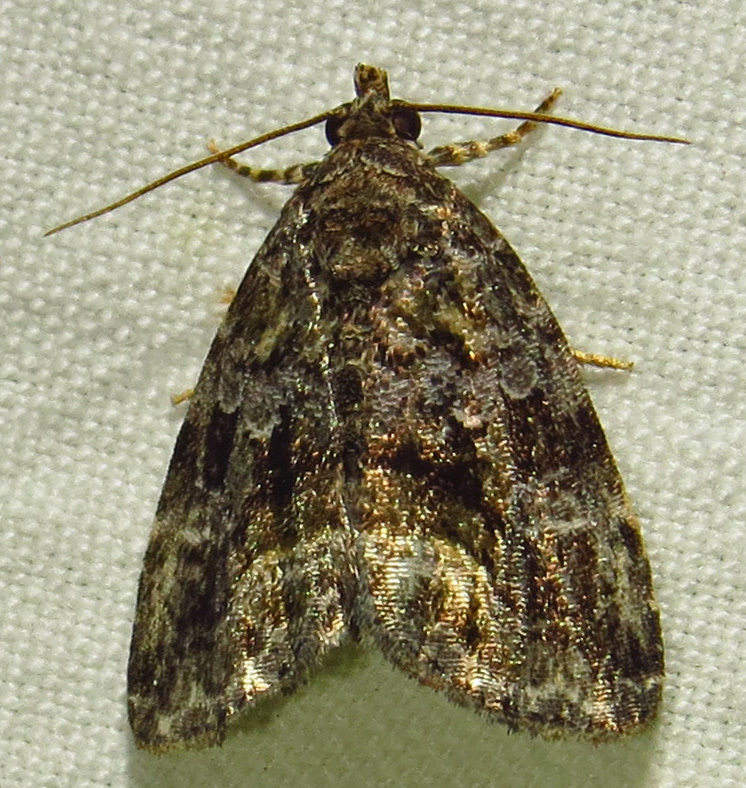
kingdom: Animalia
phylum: Arthropoda
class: Insecta
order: Lepidoptera
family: Noctuidae
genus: Protodeltote
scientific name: Protodeltote muscosula
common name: Large mossy glyph
